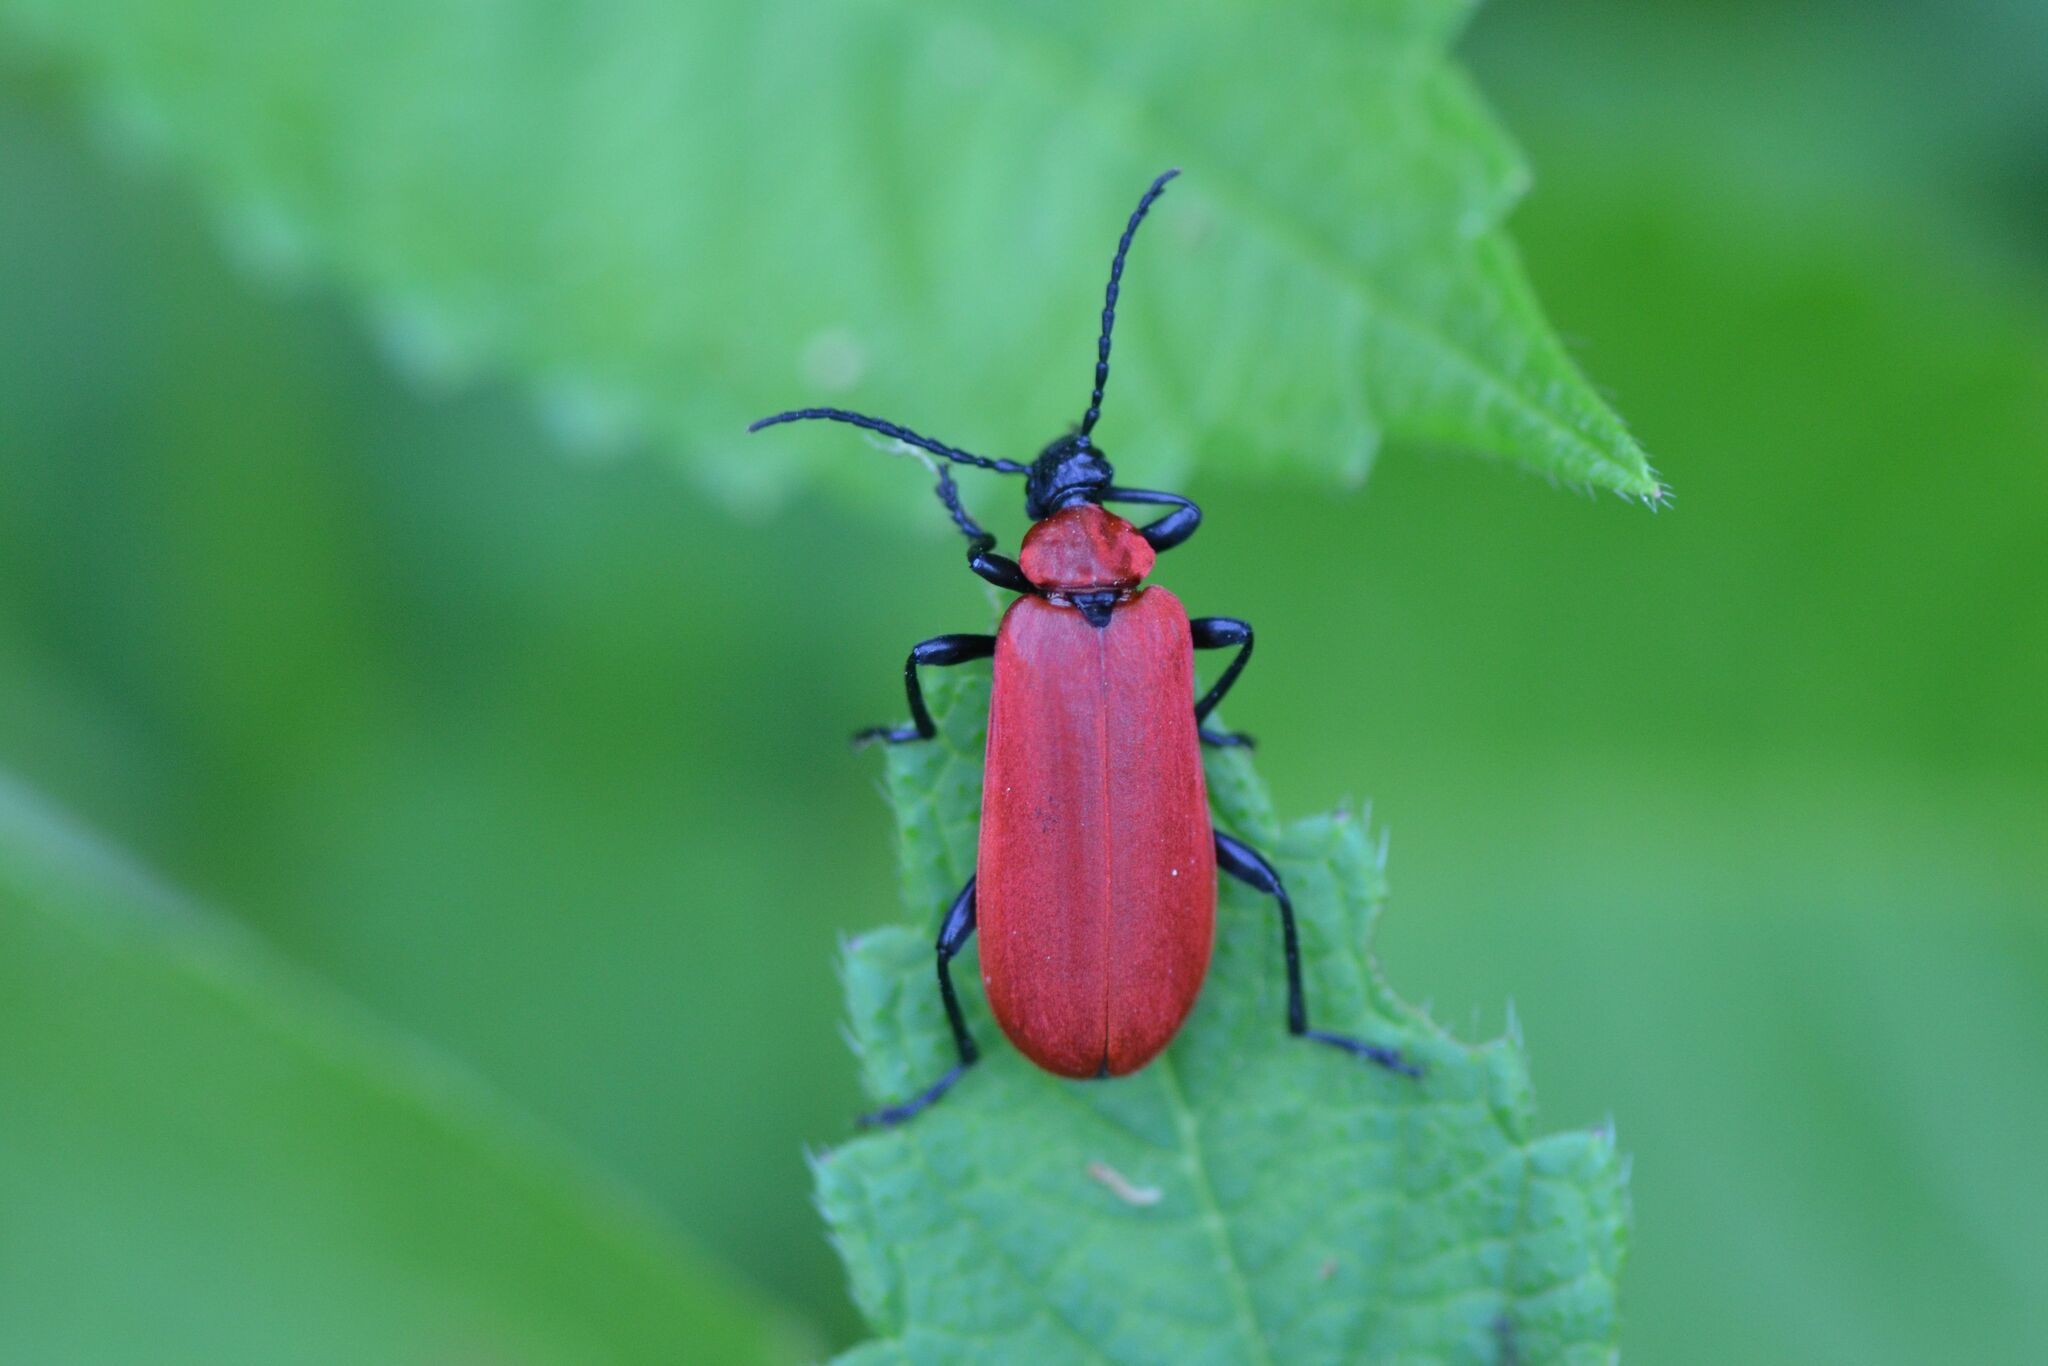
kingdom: Animalia
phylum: Arthropoda
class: Insecta
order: Coleoptera
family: Pyrochroidae
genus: Pyrochroa
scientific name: Pyrochroa coccinea
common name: Black-headed cardinal beetle
